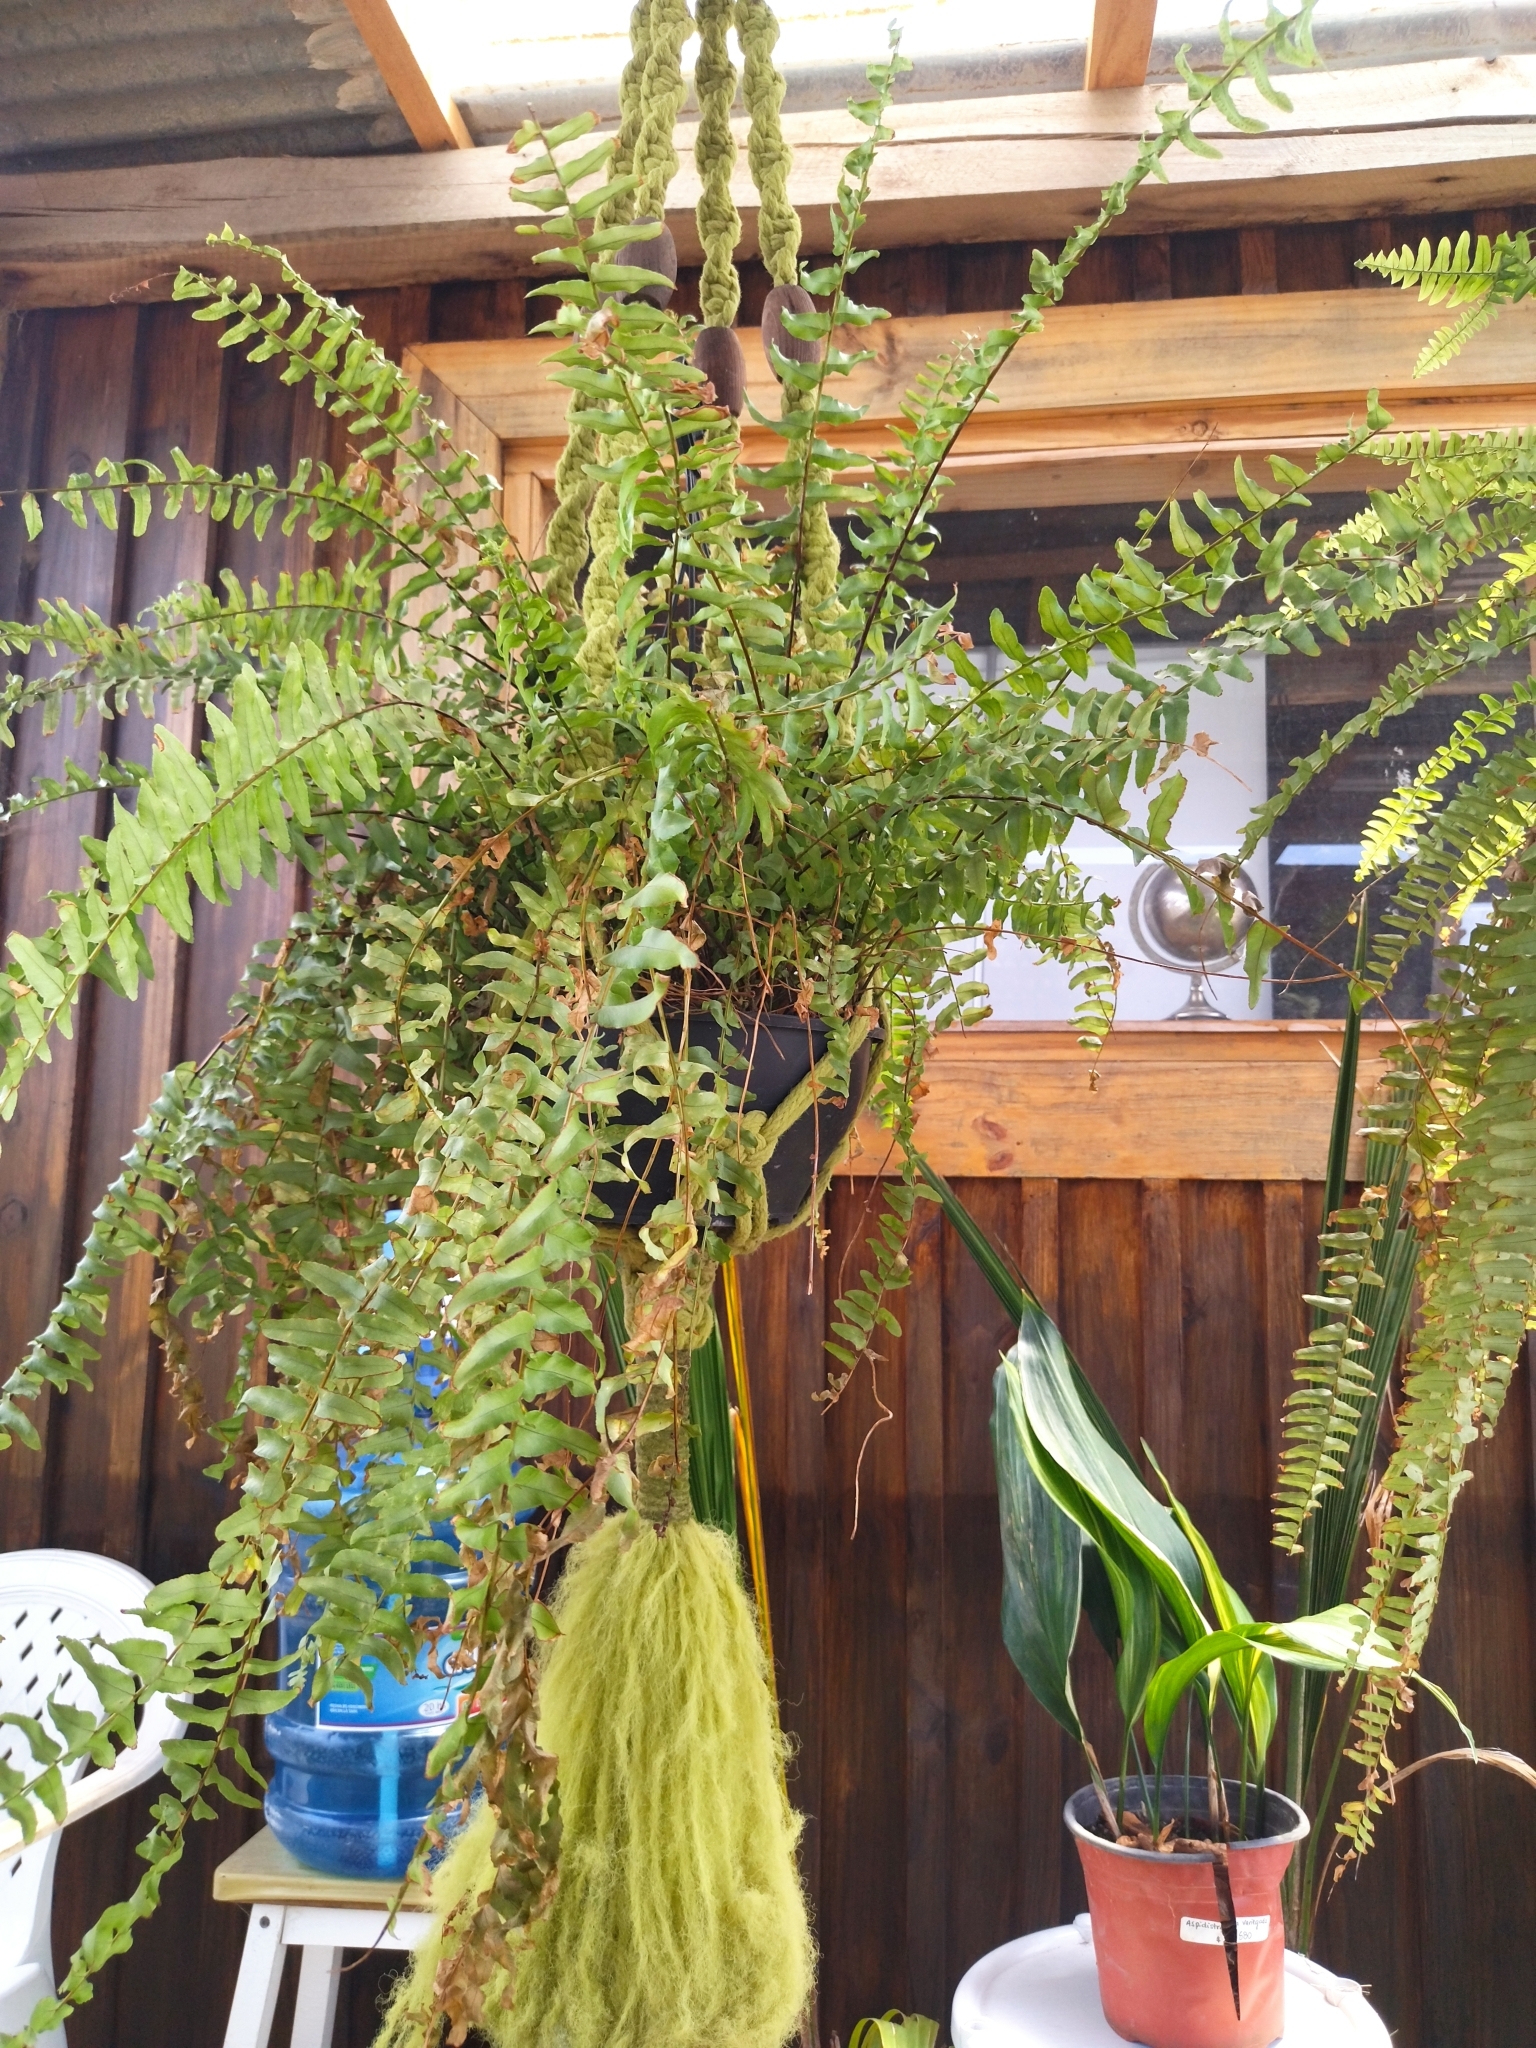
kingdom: Animalia
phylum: Chordata
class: Aves
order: Passeriformes
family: Passerellidae
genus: Zonotrichia
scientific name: Zonotrichia capensis
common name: Rufous-collared sparrow
